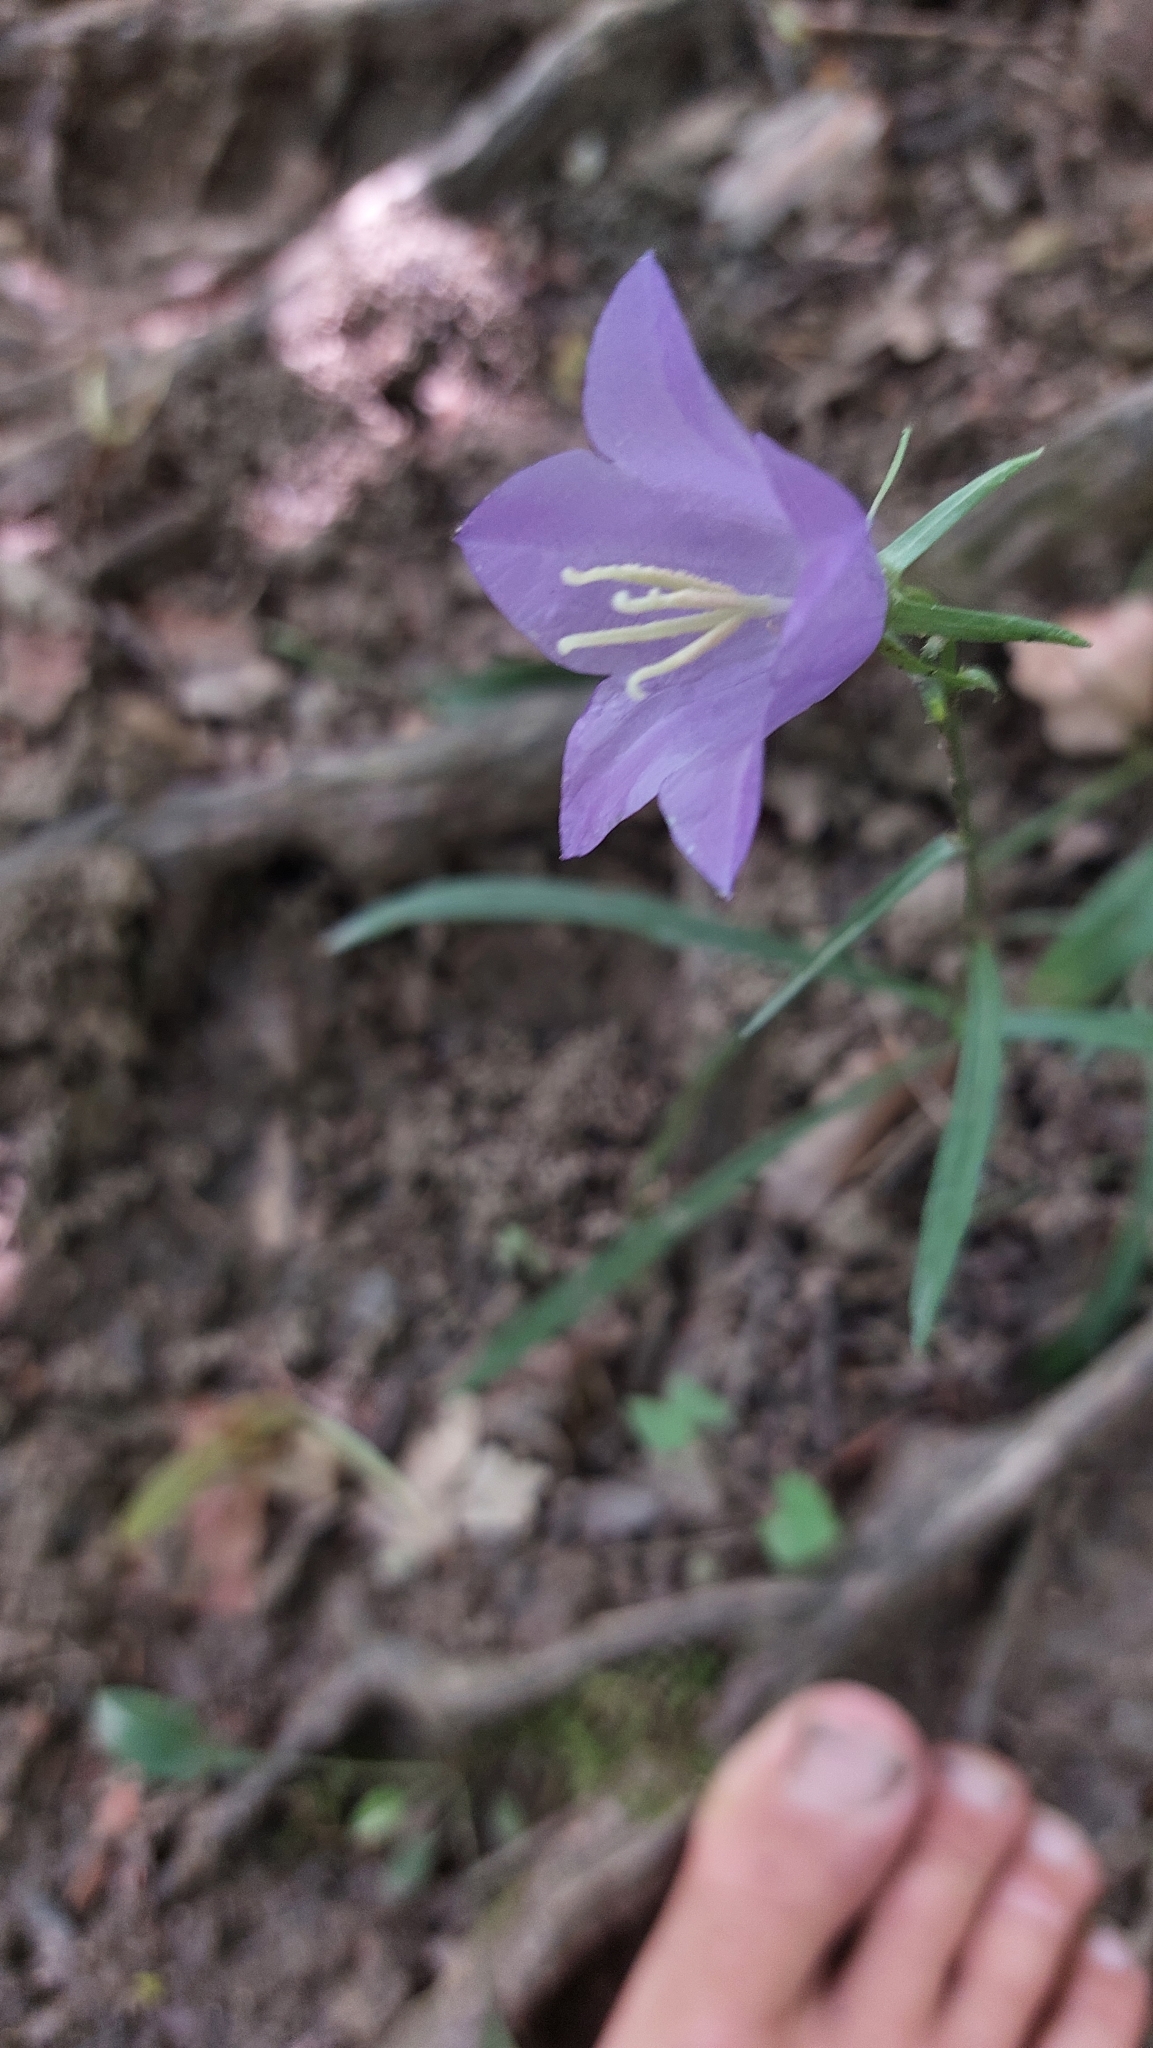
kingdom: Plantae
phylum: Tracheophyta
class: Magnoliopsida
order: Asterales
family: Campanulaceae
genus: Campanula
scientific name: Campanula persicifolia
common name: Peach-leaved bellflower
